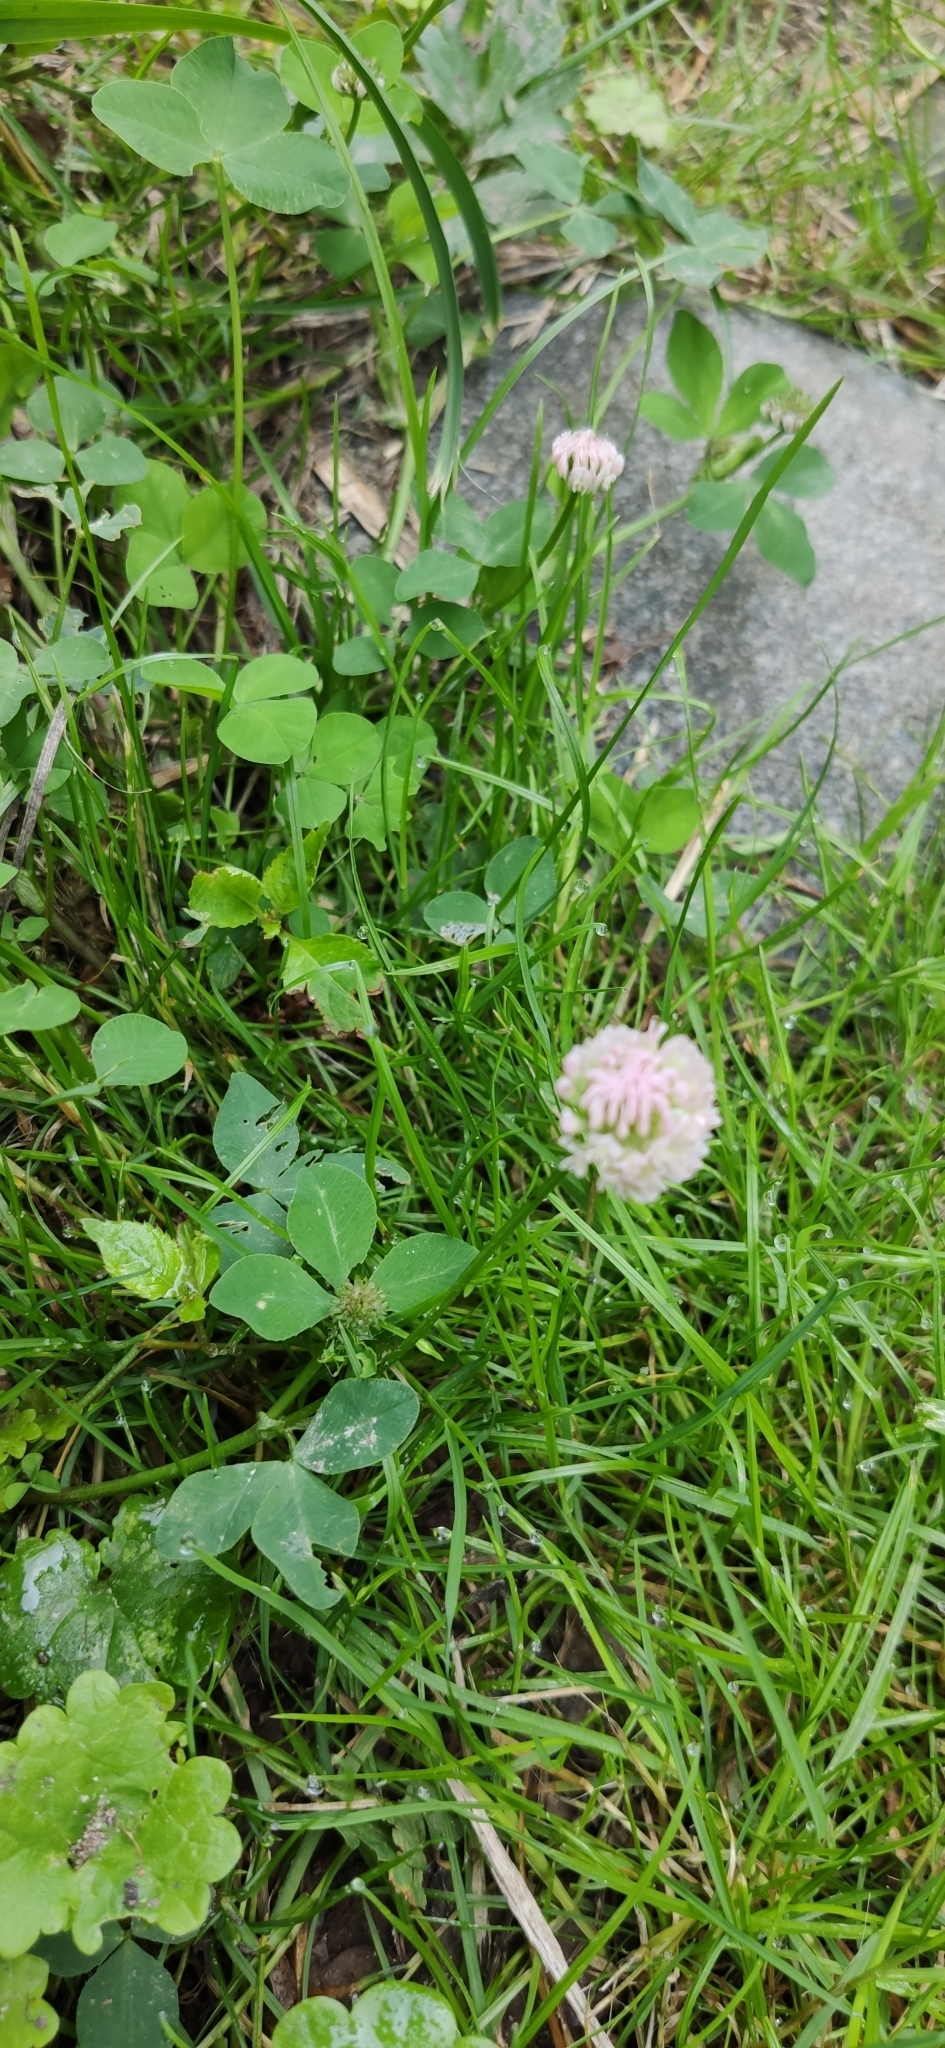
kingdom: Plantae
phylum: Tracheophyta
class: Magnoliopsida
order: Fabales
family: Fabaceae
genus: Trifolium
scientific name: Trifolium hybridum
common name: Alsike clover
